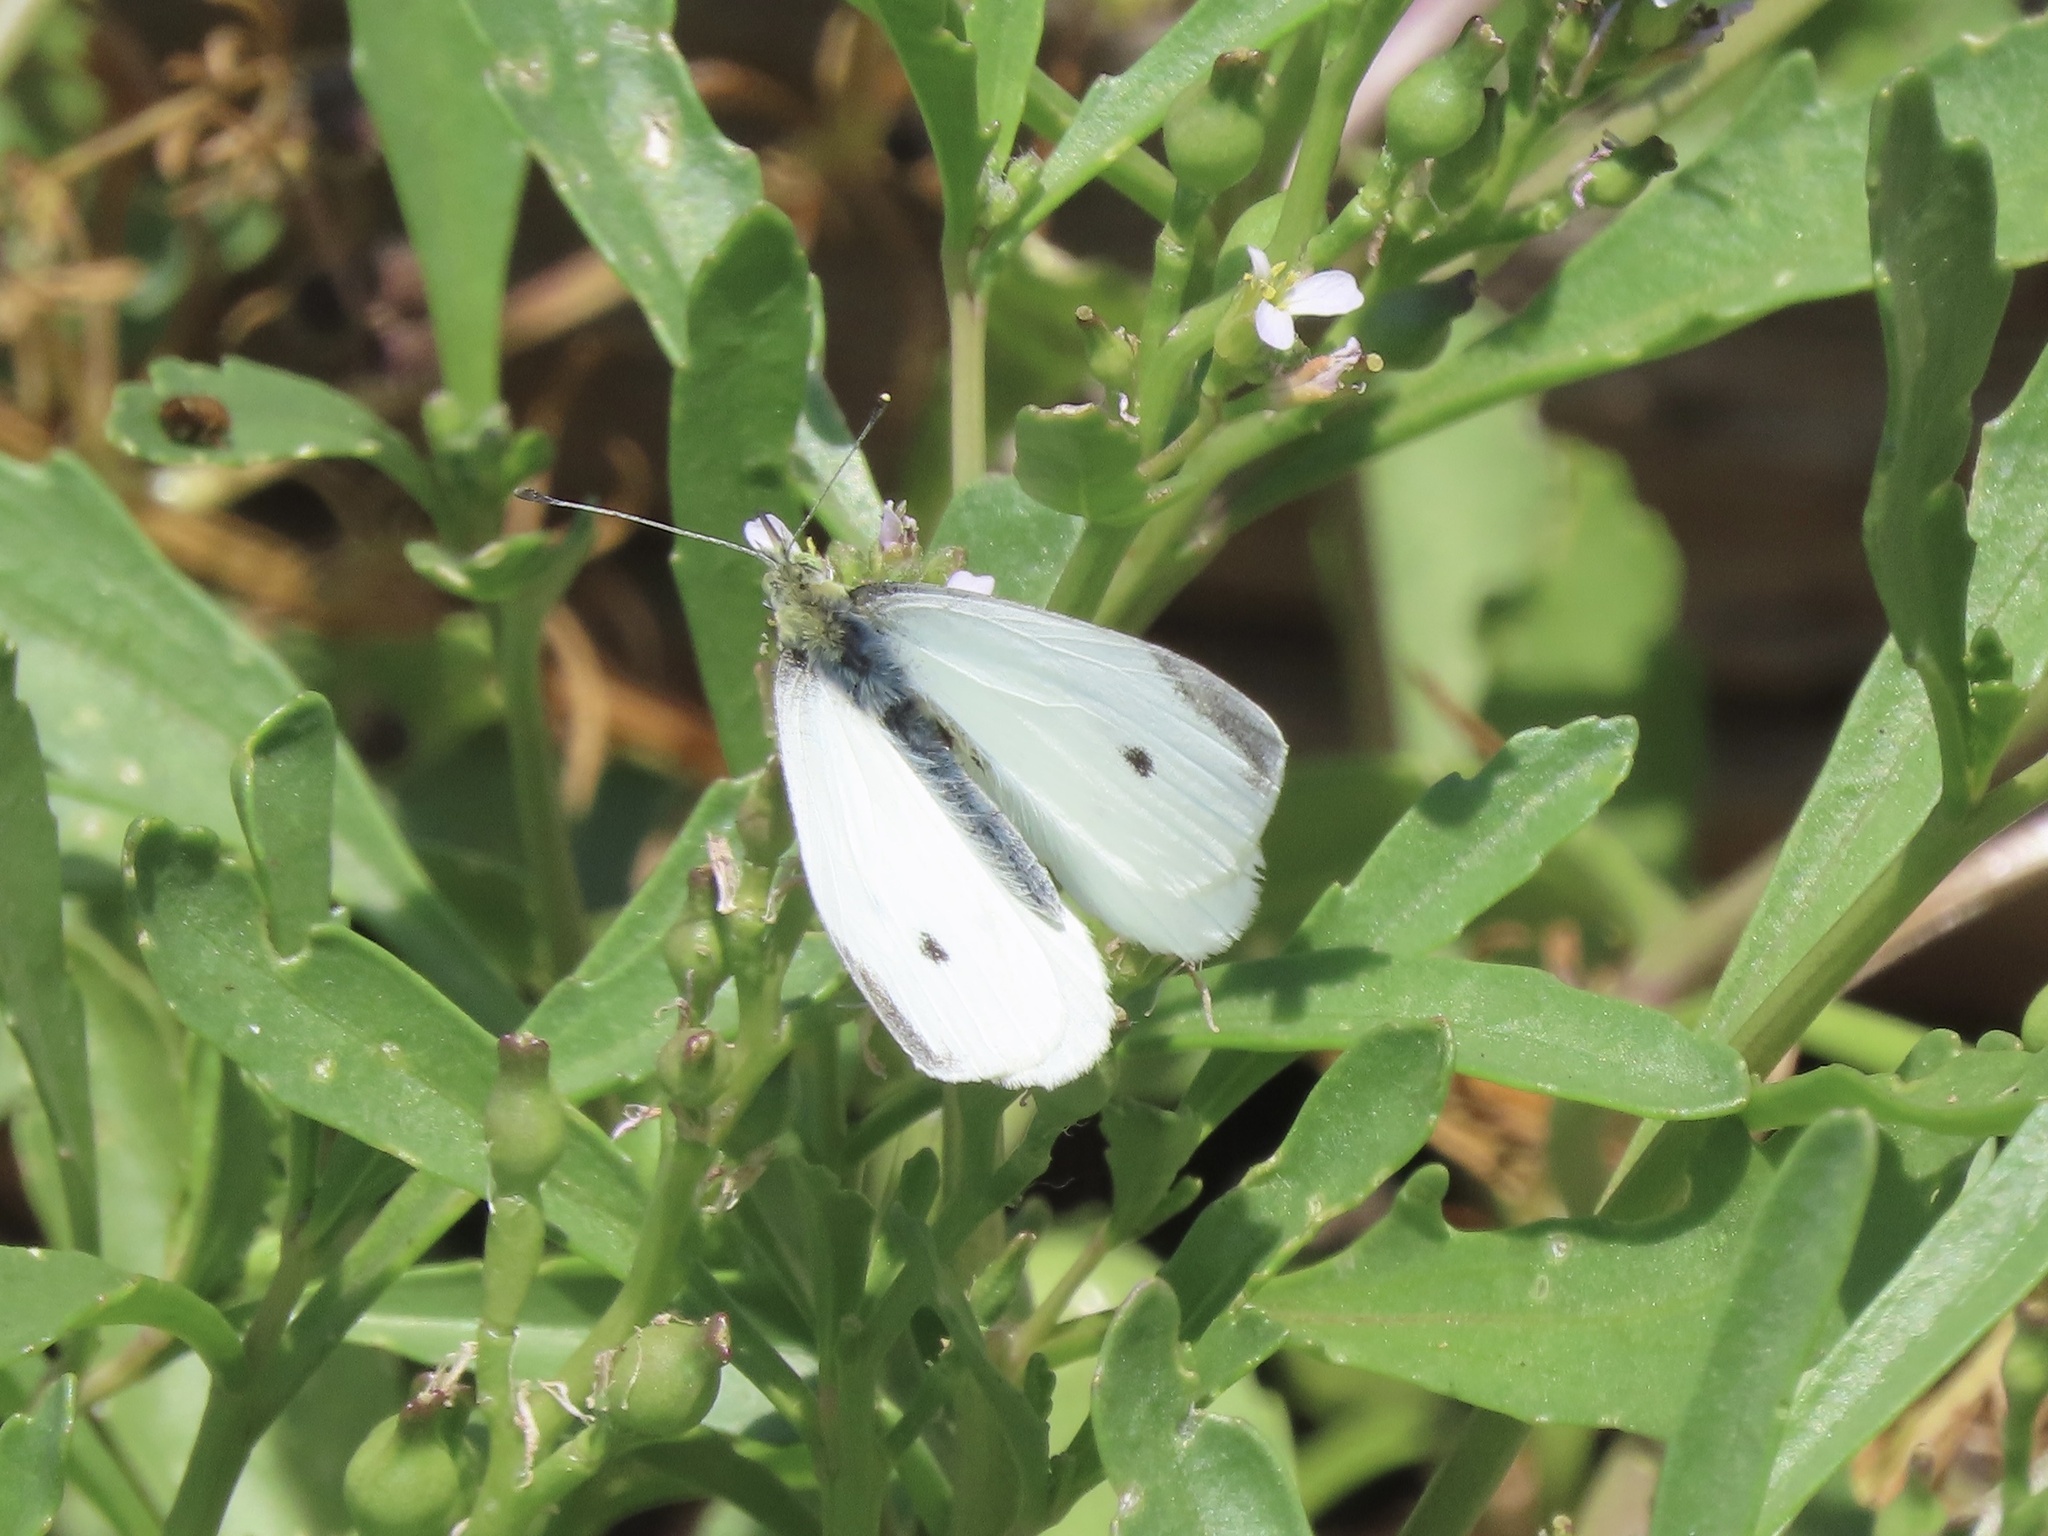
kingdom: Animalia
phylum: Arthropoda
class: Insecta
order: Lepidoptera
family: Pieridae
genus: Pieris
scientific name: Pieris rapae
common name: Small white
